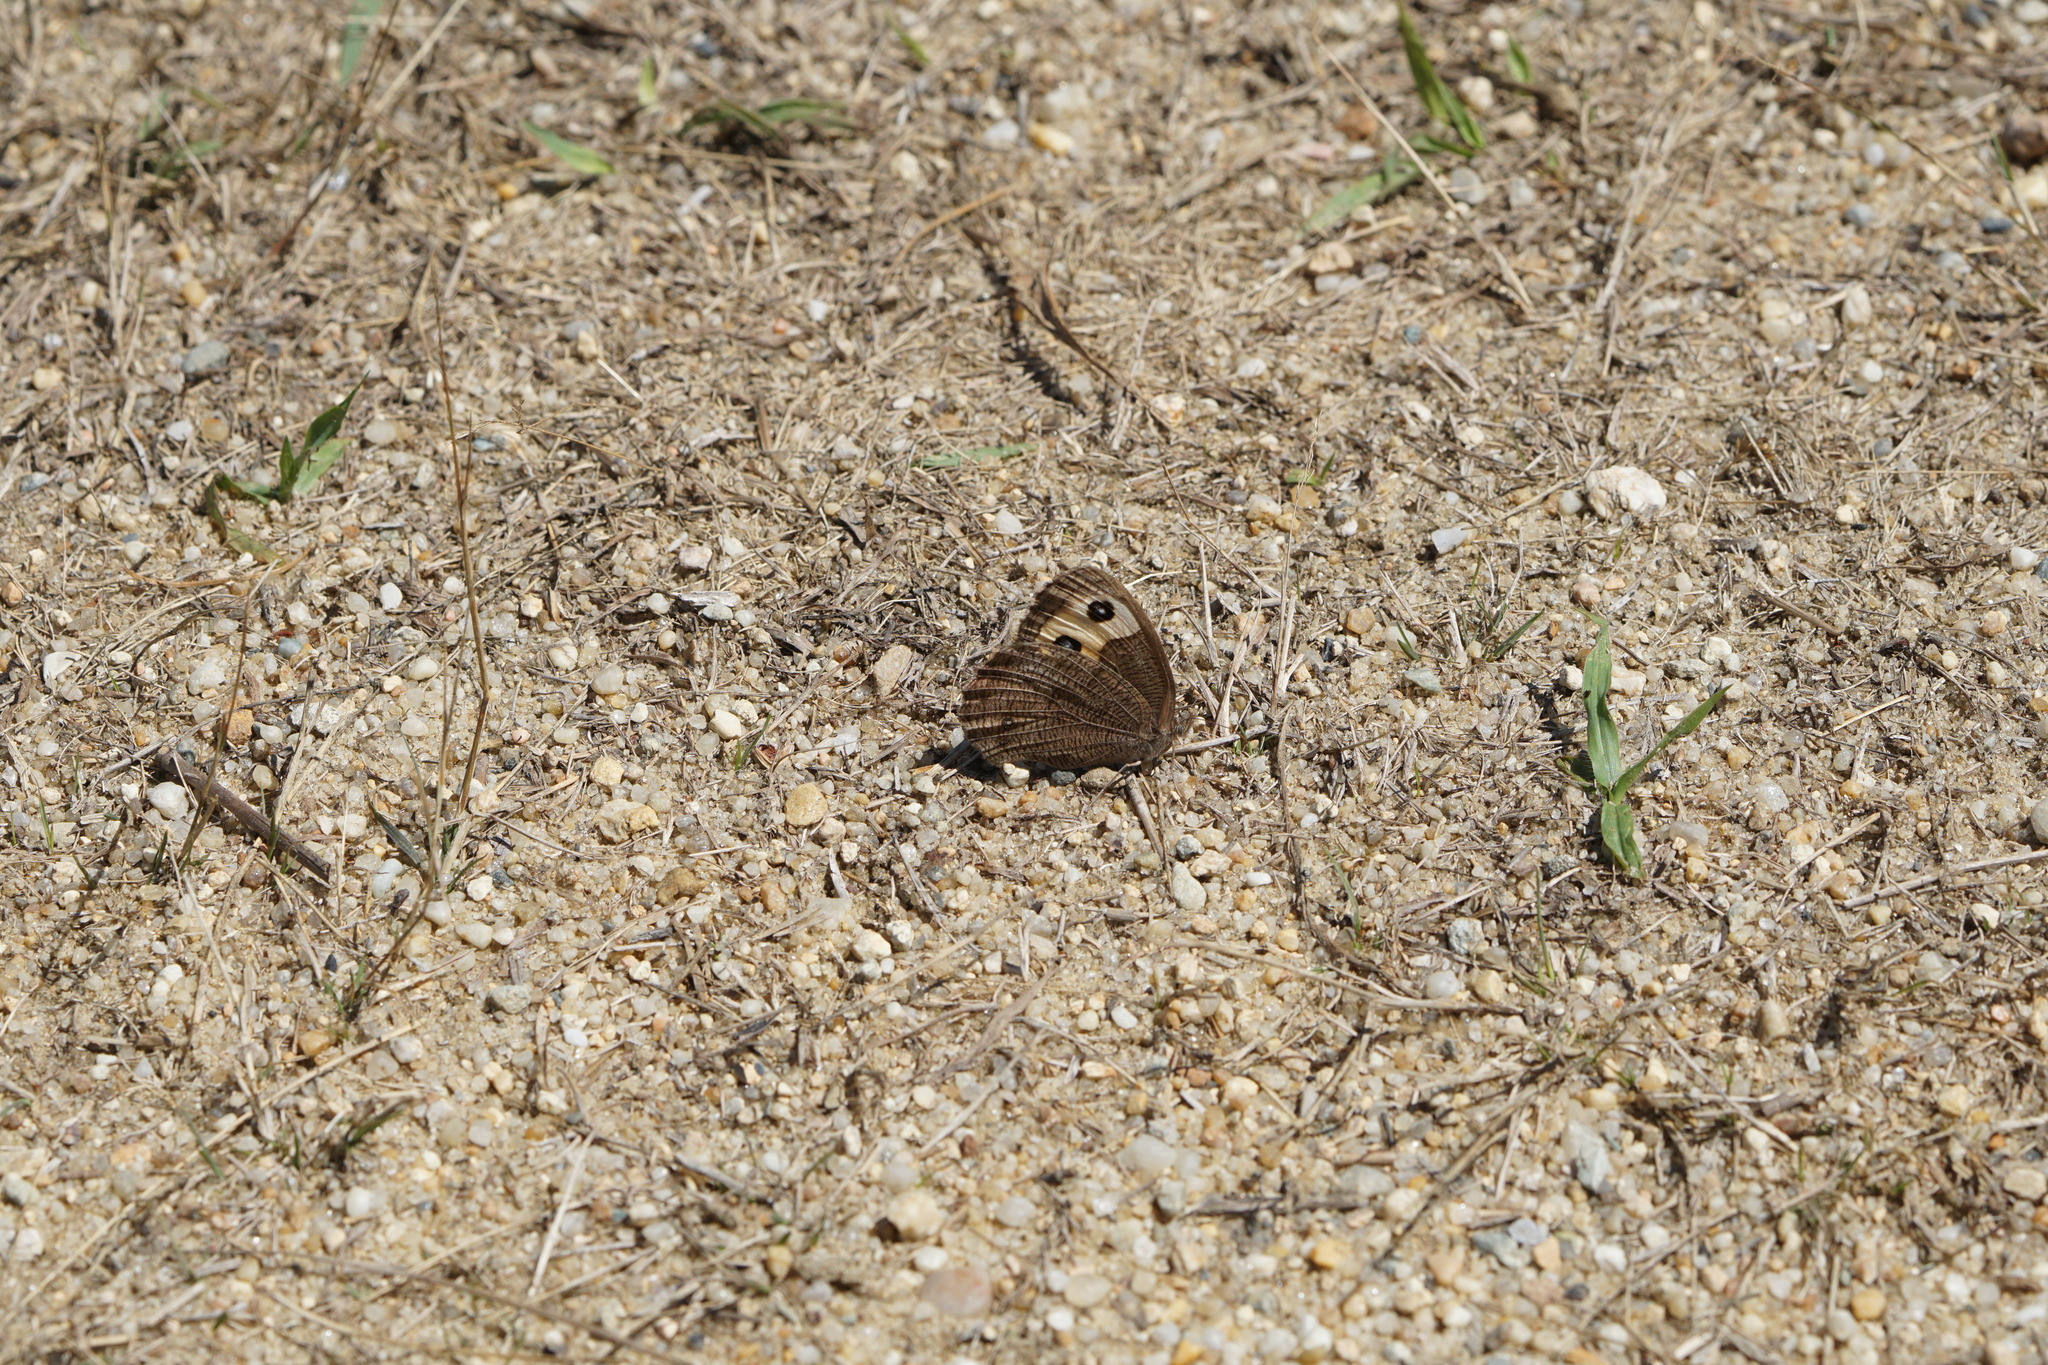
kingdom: Animalia
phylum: Arthropoda
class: Insecta
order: Lepidoptera
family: Nymphalidae
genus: Cercyonis
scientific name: Cercyonis pegala
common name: Common wood-nymph
